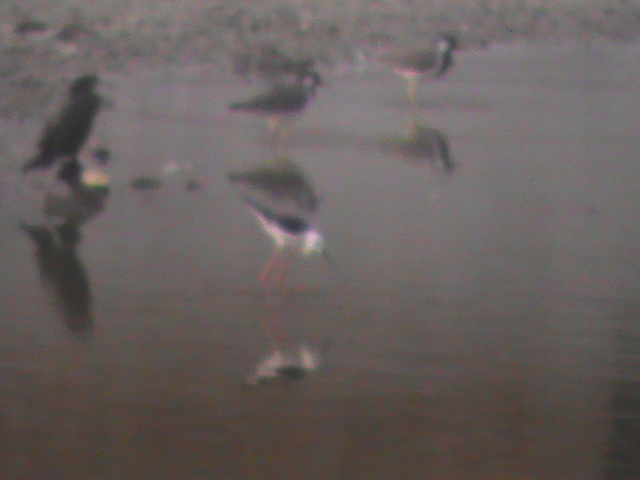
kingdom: Animalia
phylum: Chordata
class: Aves
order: Charadriiformes
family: Recurvirostridae
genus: Himantopus
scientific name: Himantopus himantopus
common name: Black-winged stilt
